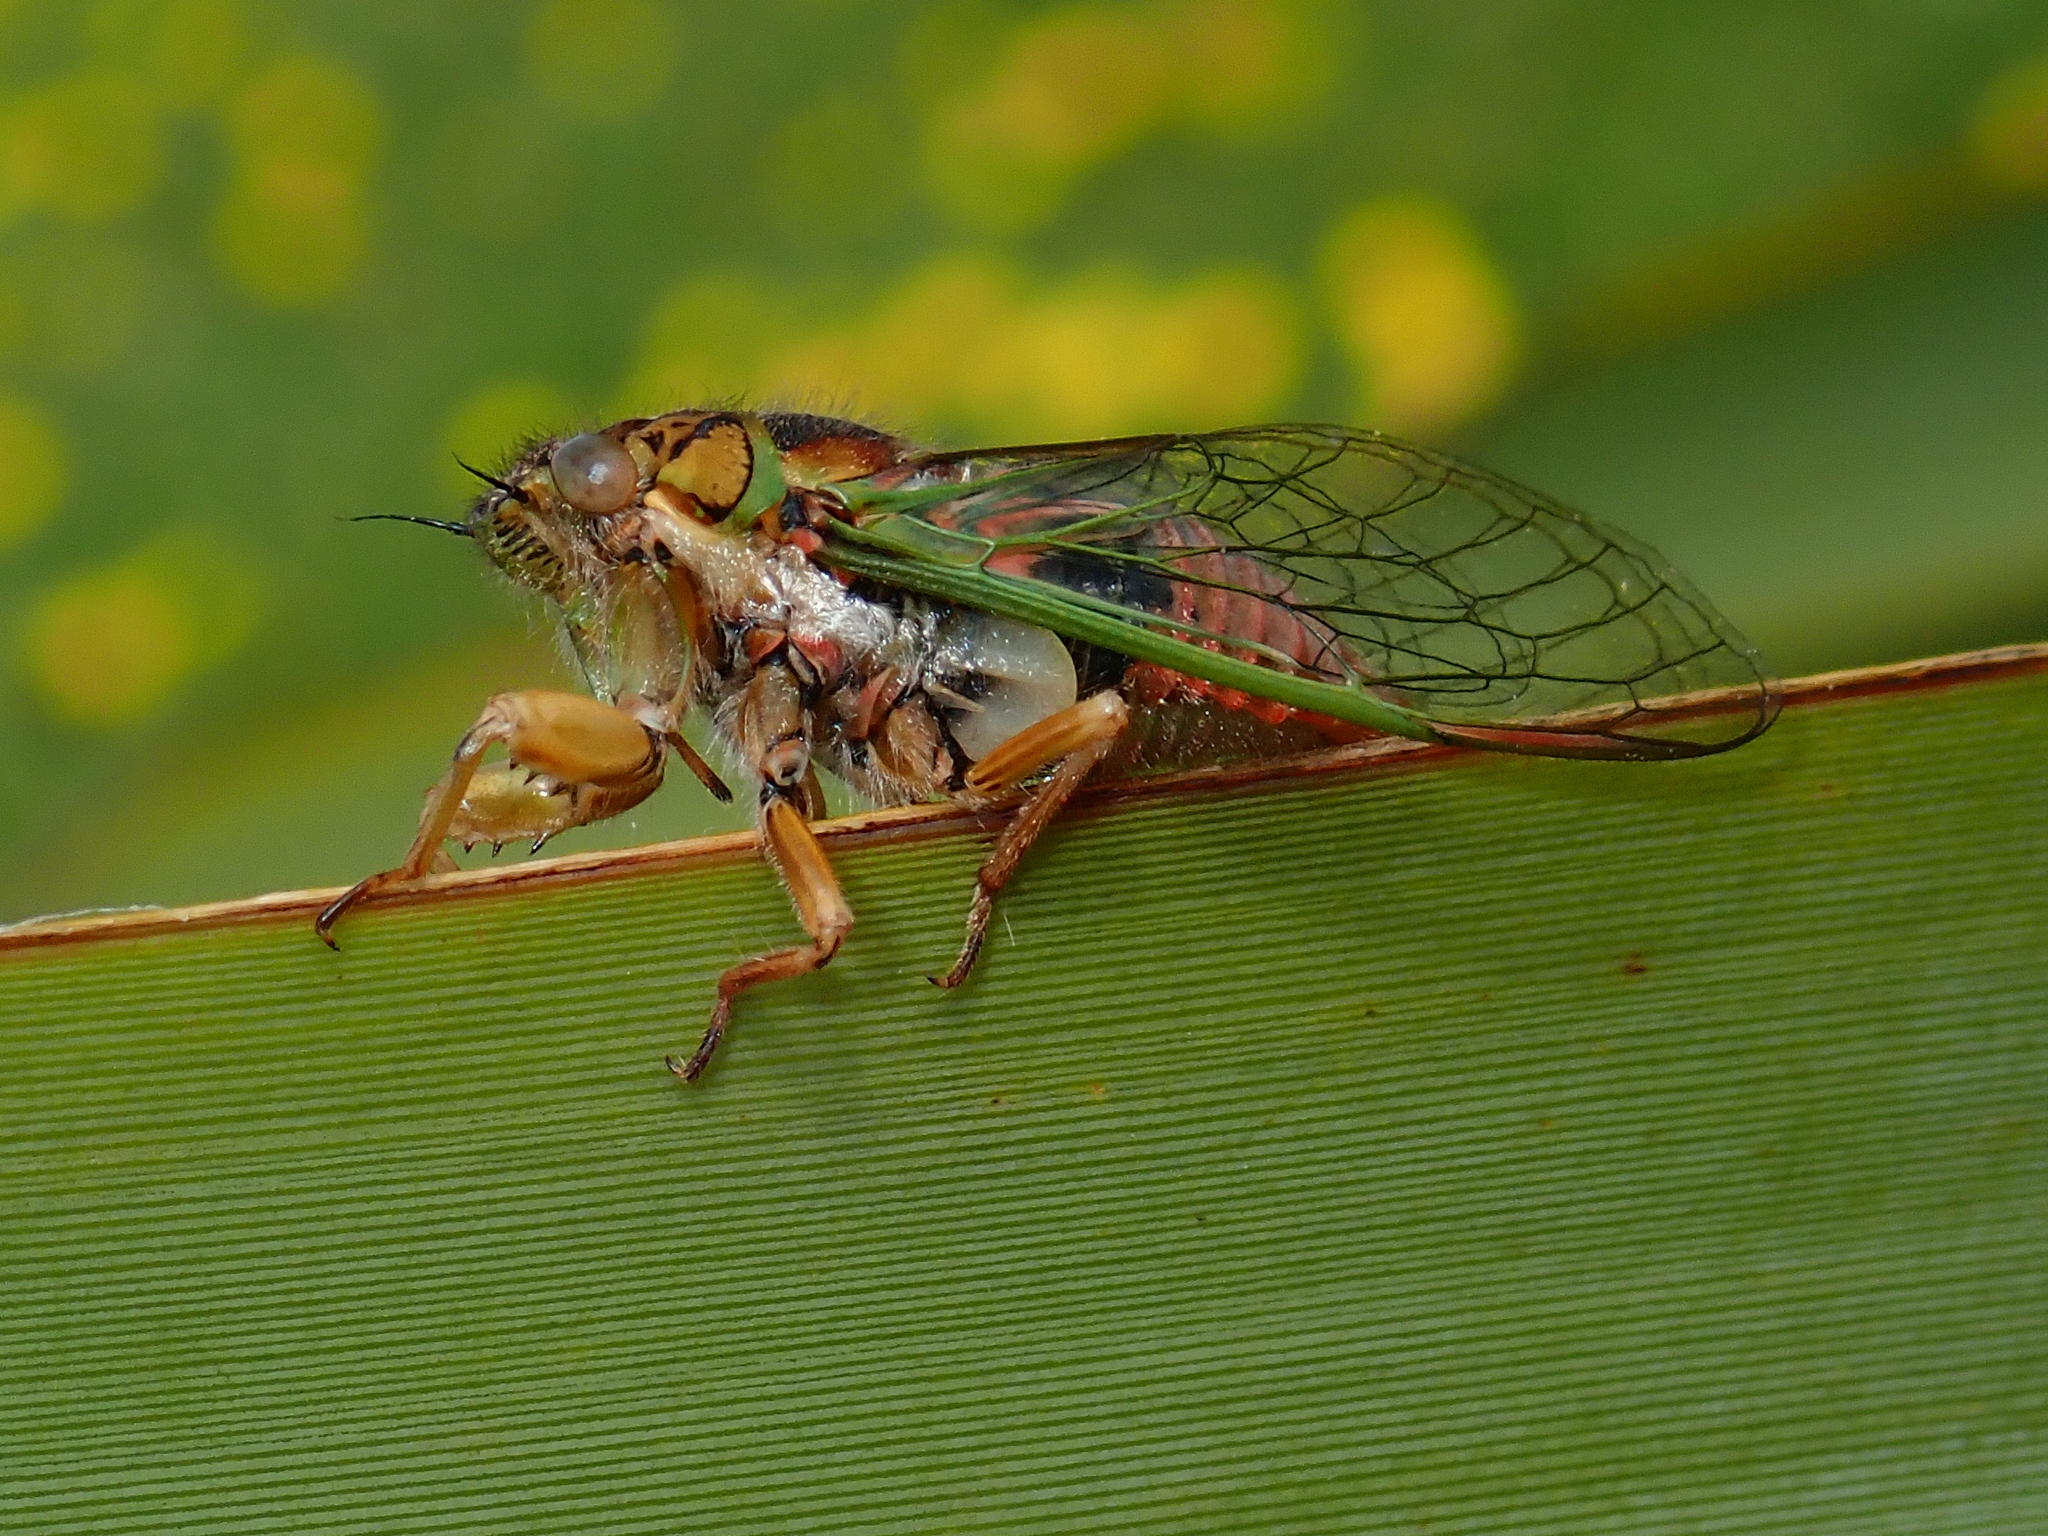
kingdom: Animalia
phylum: Arthropoda
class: Insecta
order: Hemiptera
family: Cicadidae
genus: Rhodopsalta
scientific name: Rhodopsalta cruentata
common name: Blood redtail cicada
